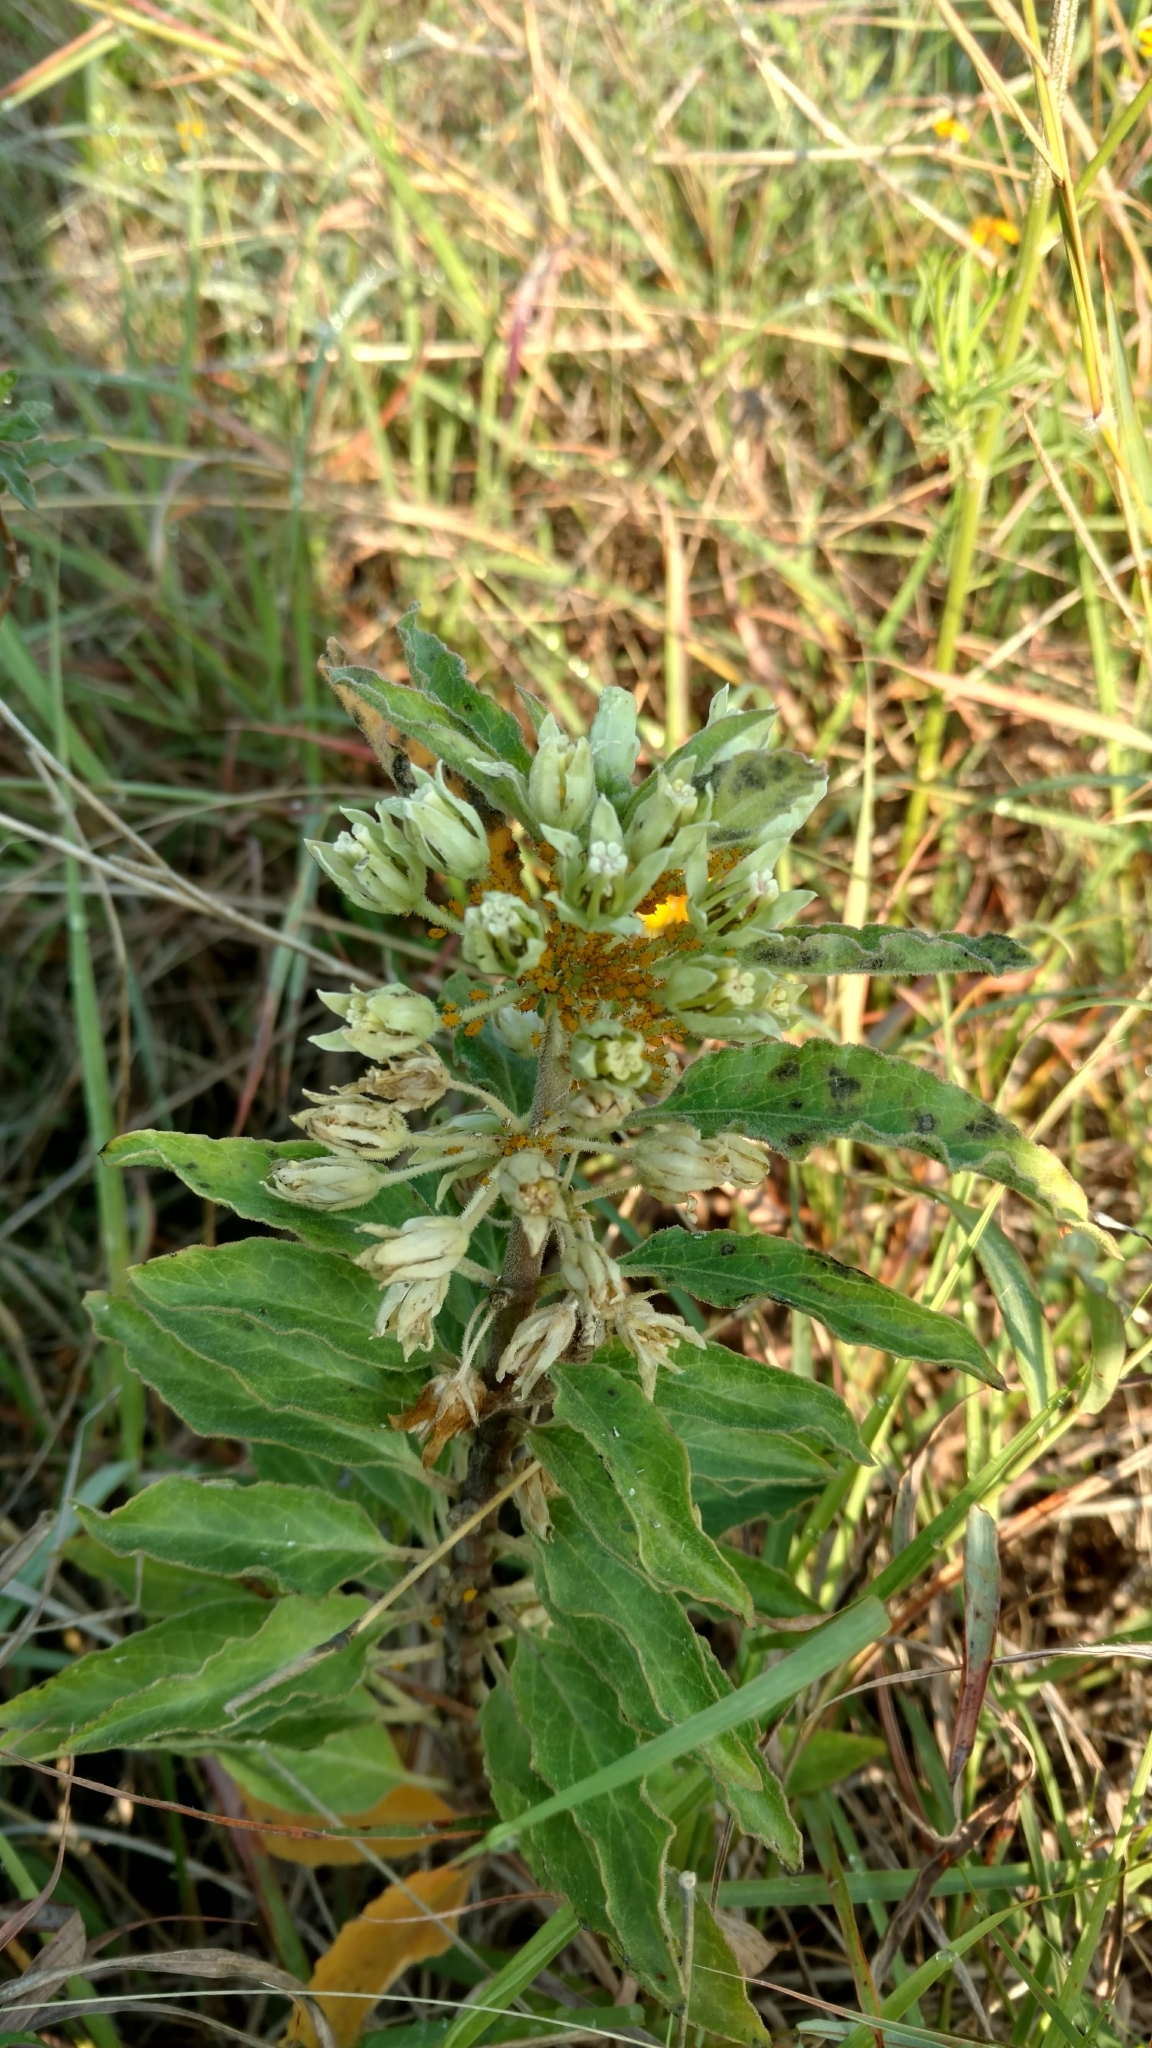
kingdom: Plantae
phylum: Tracheophyta
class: Magnoliopsida
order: Gentianales
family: Apocynaceae
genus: Asclepias
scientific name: Asclepias oenotheroides
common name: Zizotes milkweed
